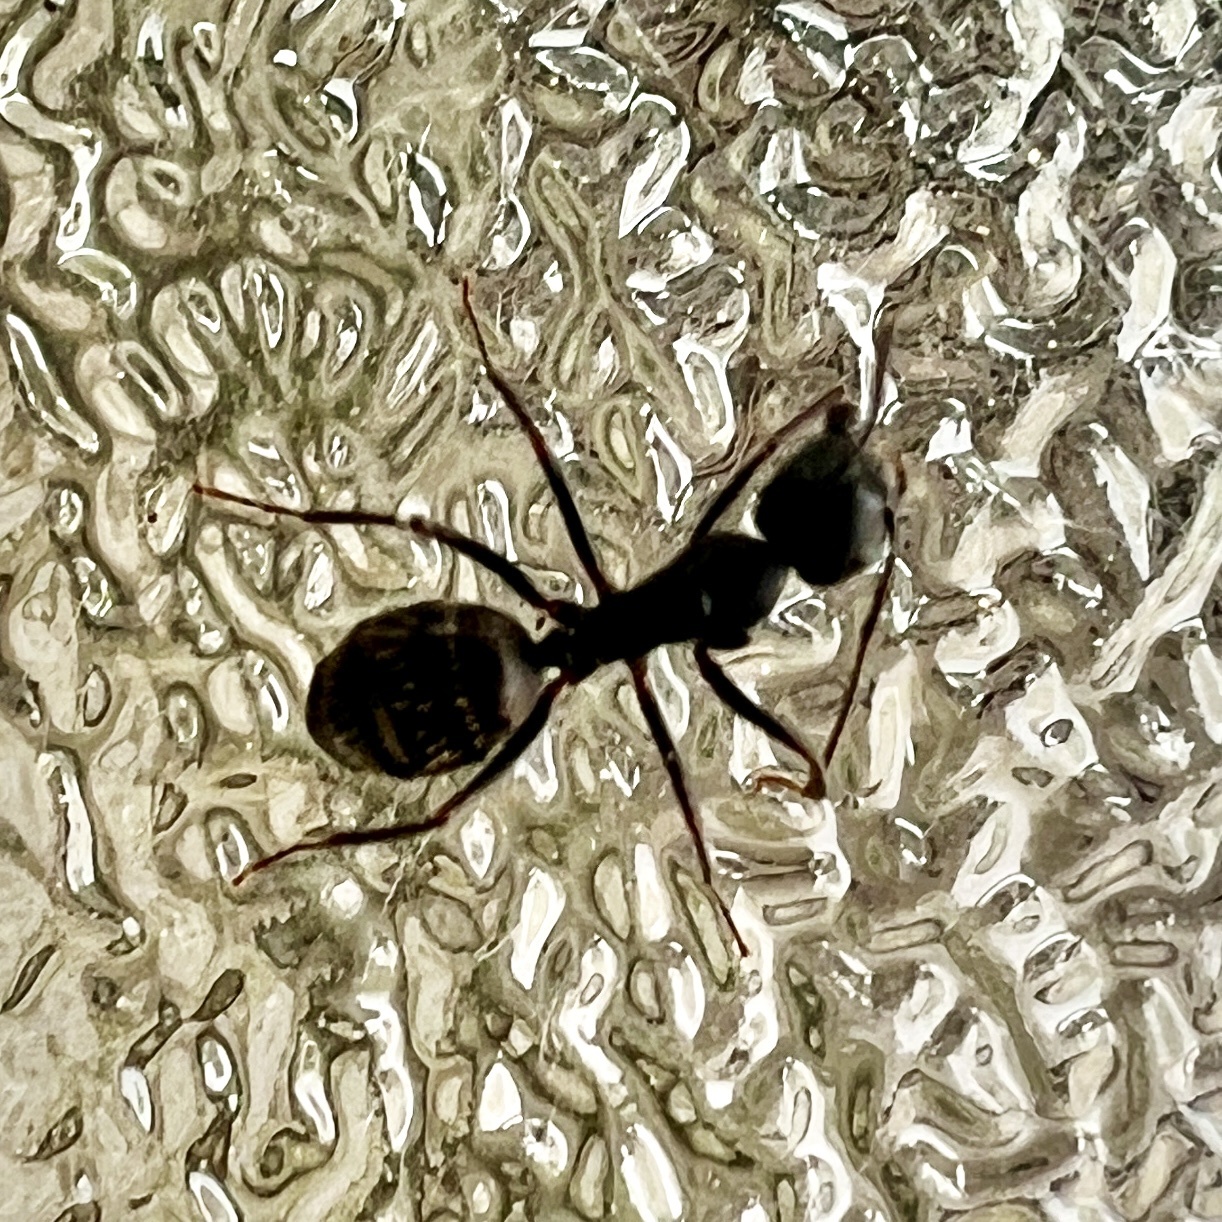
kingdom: Animalia
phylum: Arthropoda
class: Insecta
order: Hymenoptera
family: Formicidae
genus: Camponotus
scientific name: Camponotus pennsylvanicus
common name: Black carpenter ant
